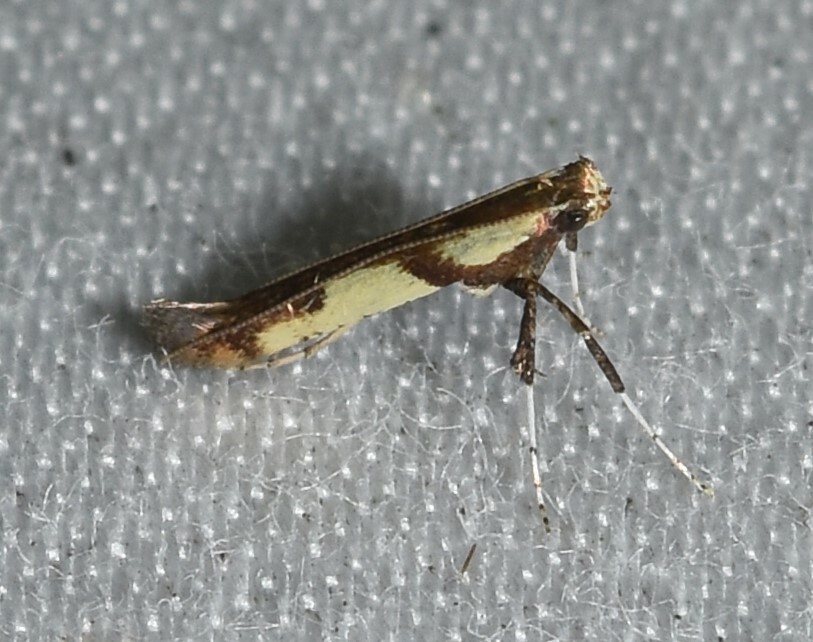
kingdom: Animalia
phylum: Arthropoda
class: Insecta
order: Lepidoptera
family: Gracillariidae
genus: Caloptilia
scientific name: Caloptilia blandella
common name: Walnut caloptilia moth
